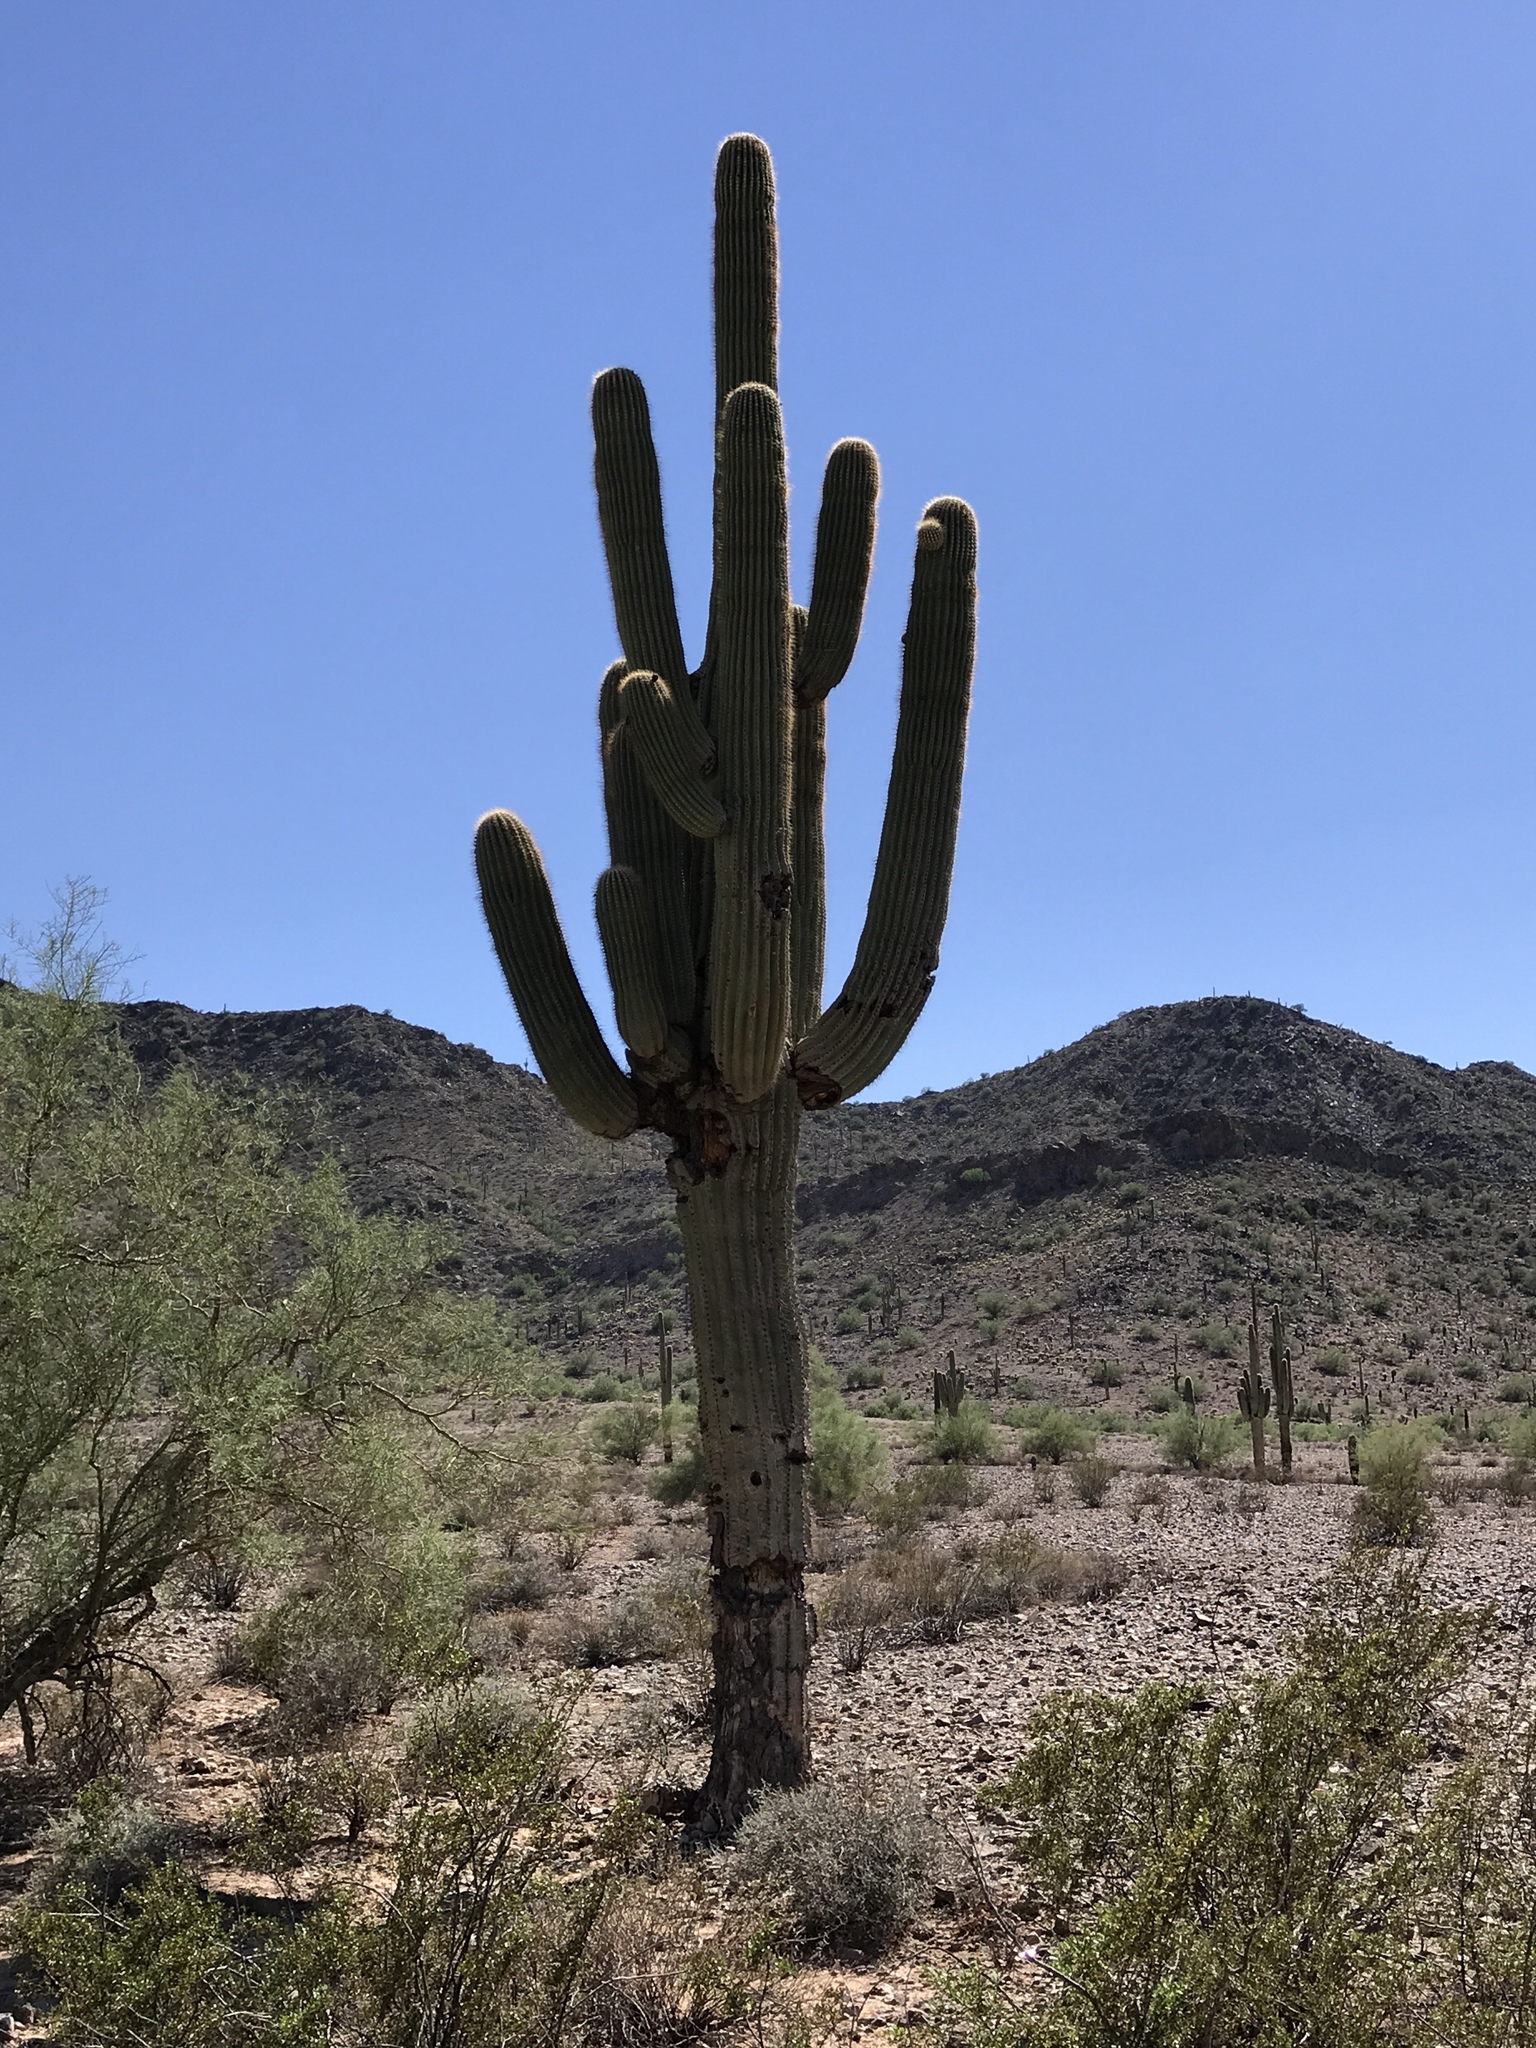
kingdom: Plantae
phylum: Tracheophyta
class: Magnoliopsida
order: Caryophyllales
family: Cactaceae
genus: Carnegiea
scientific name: Carnegiea gigantea
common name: Saguaro
